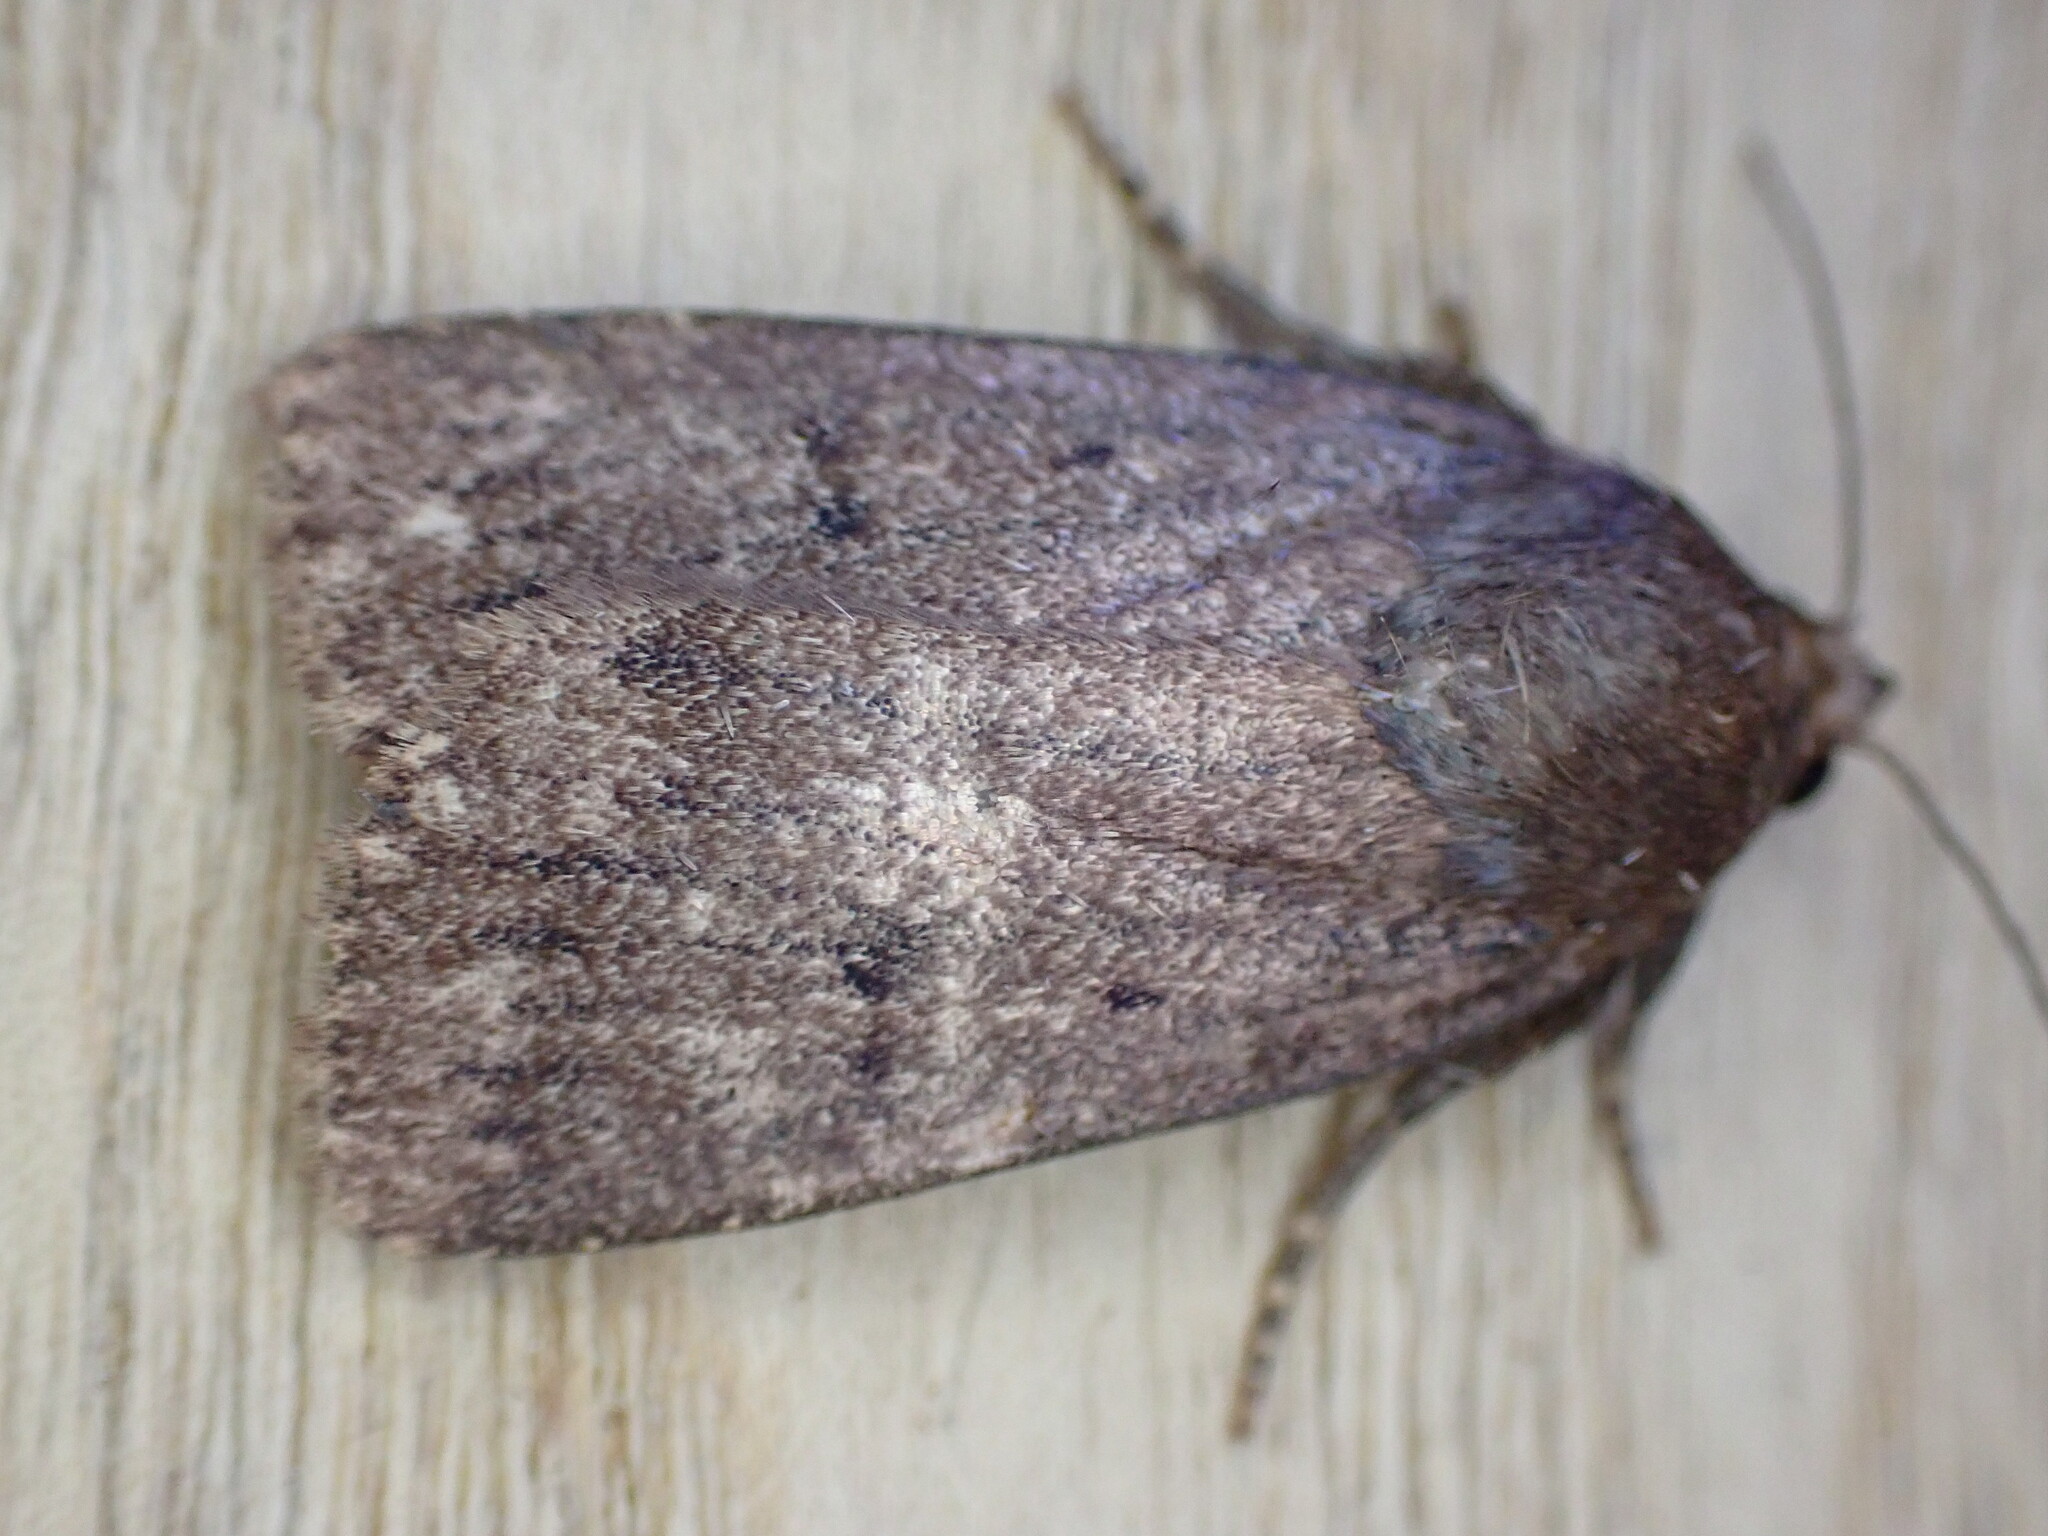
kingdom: Animalia
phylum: Arthropoda
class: Insecta
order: Lepidoptera
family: Noctuidae
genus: Amphipyra
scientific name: Amphipyra tragopoginis
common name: Mouse moth
